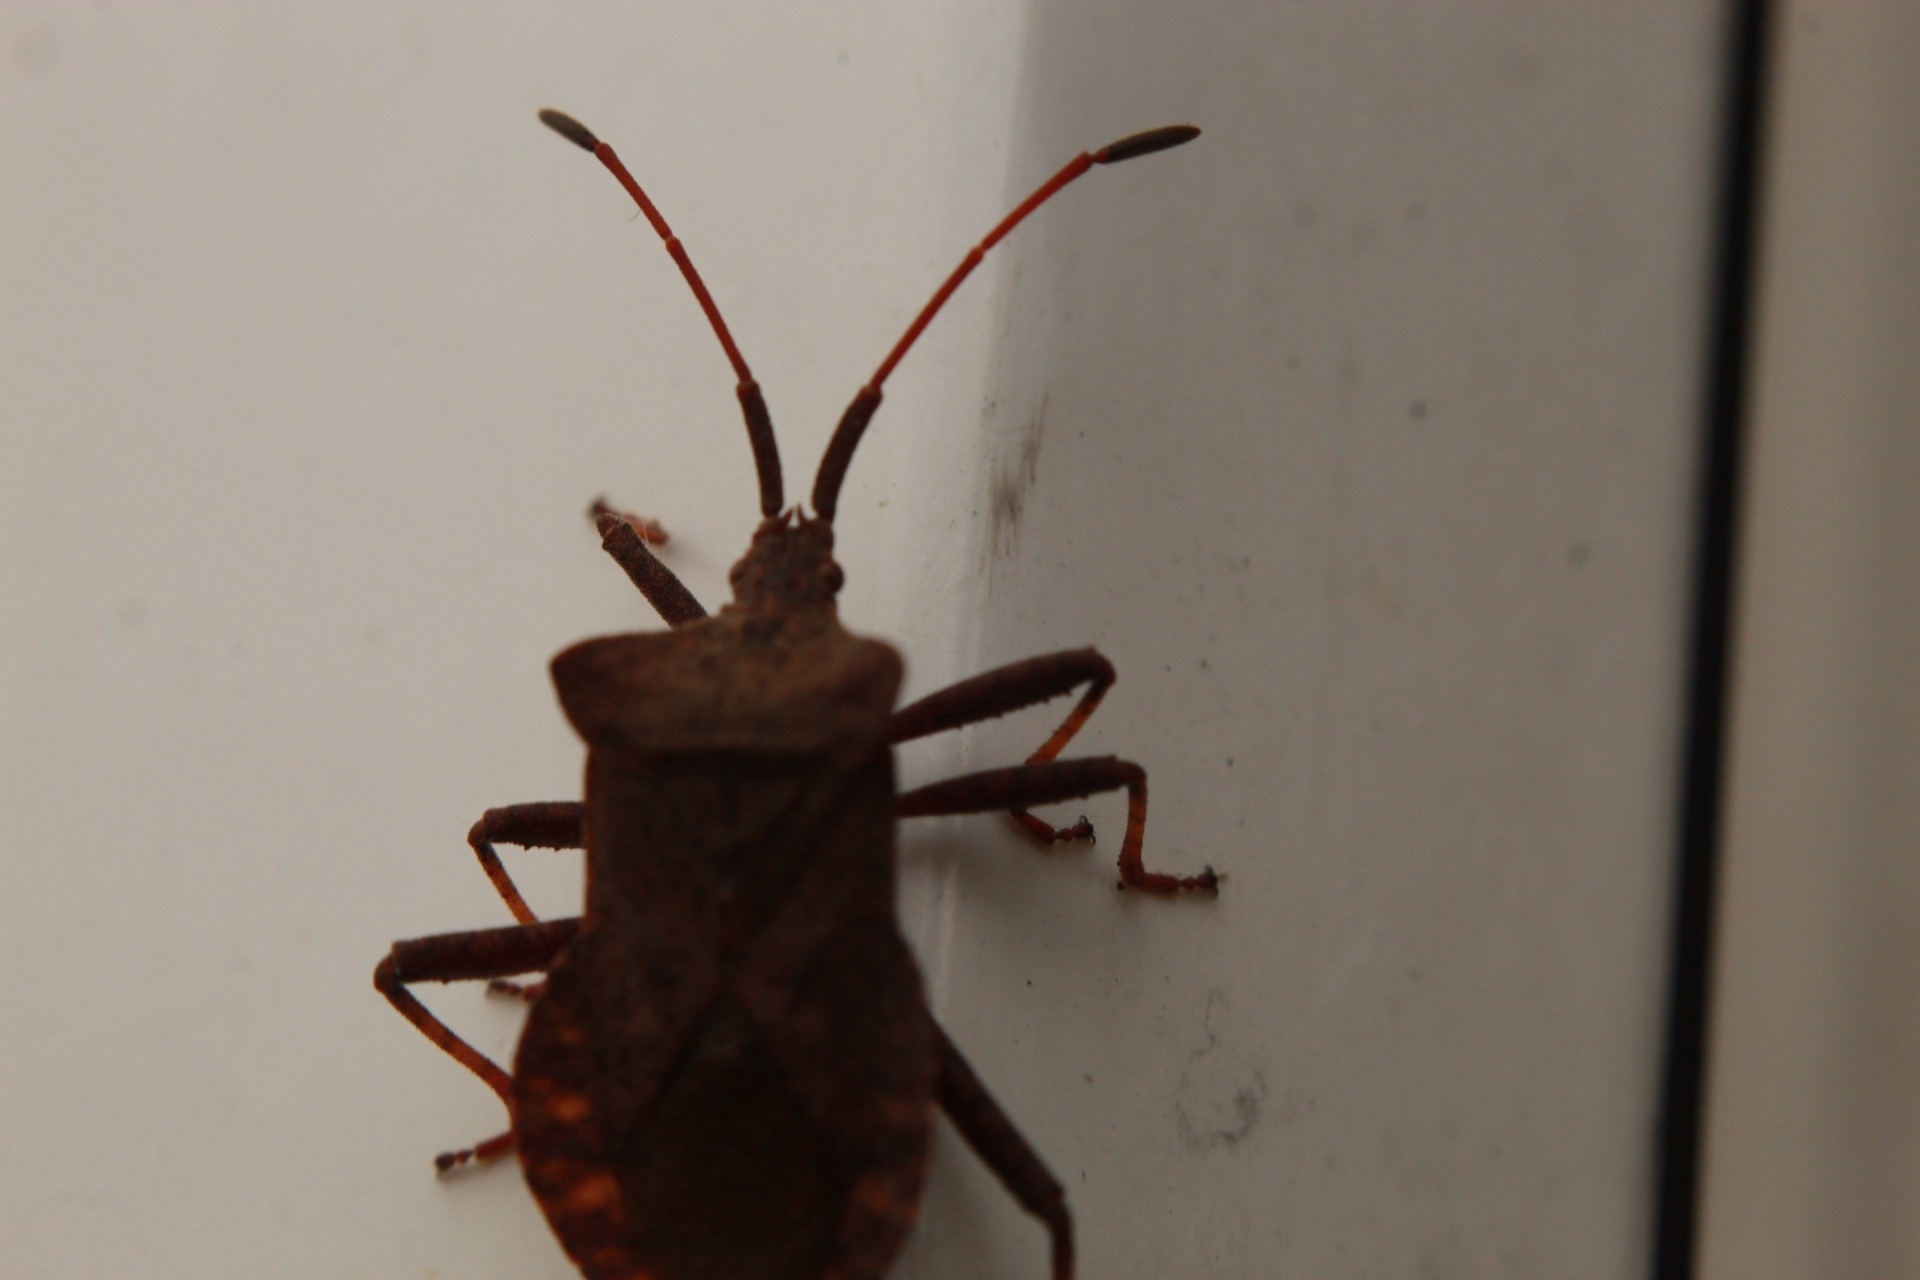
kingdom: Animalia
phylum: Arthropoda
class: Insecta
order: Hemiptera
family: Coreidae
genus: Coreus
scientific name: Coreus marginatus
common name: Dock bug
